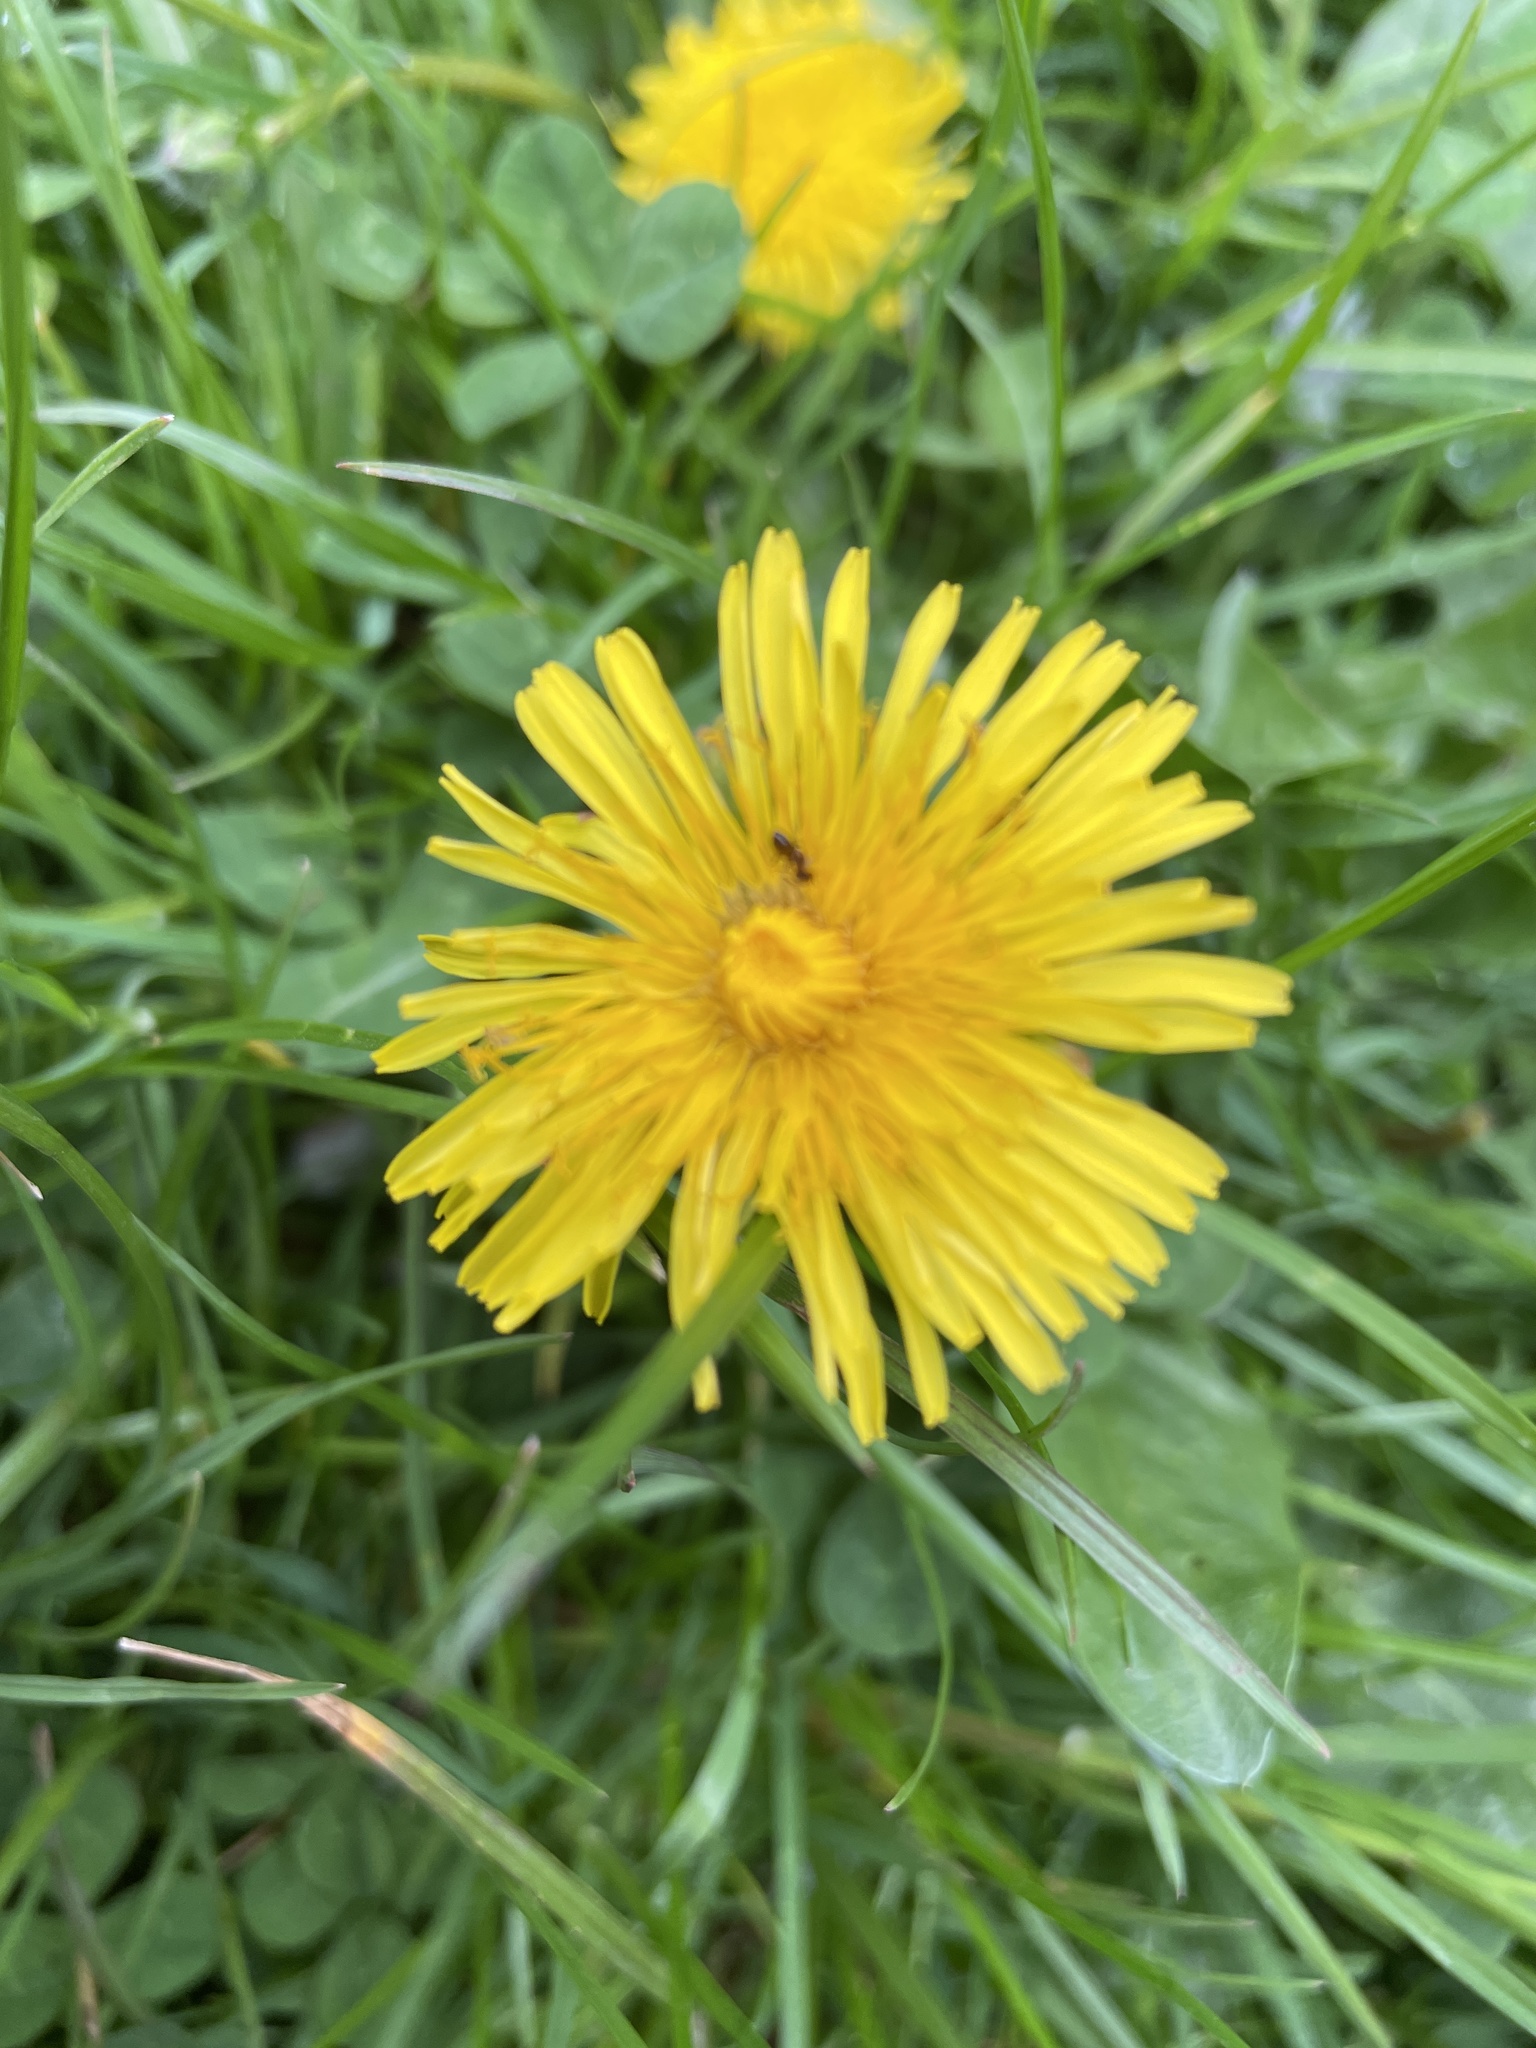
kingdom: Plantae
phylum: Tracheophyta
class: Magnoliopsida
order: Asterales
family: Asteraceae
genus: Taraxacum
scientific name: Taraxacum officinale
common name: Common dandelion
